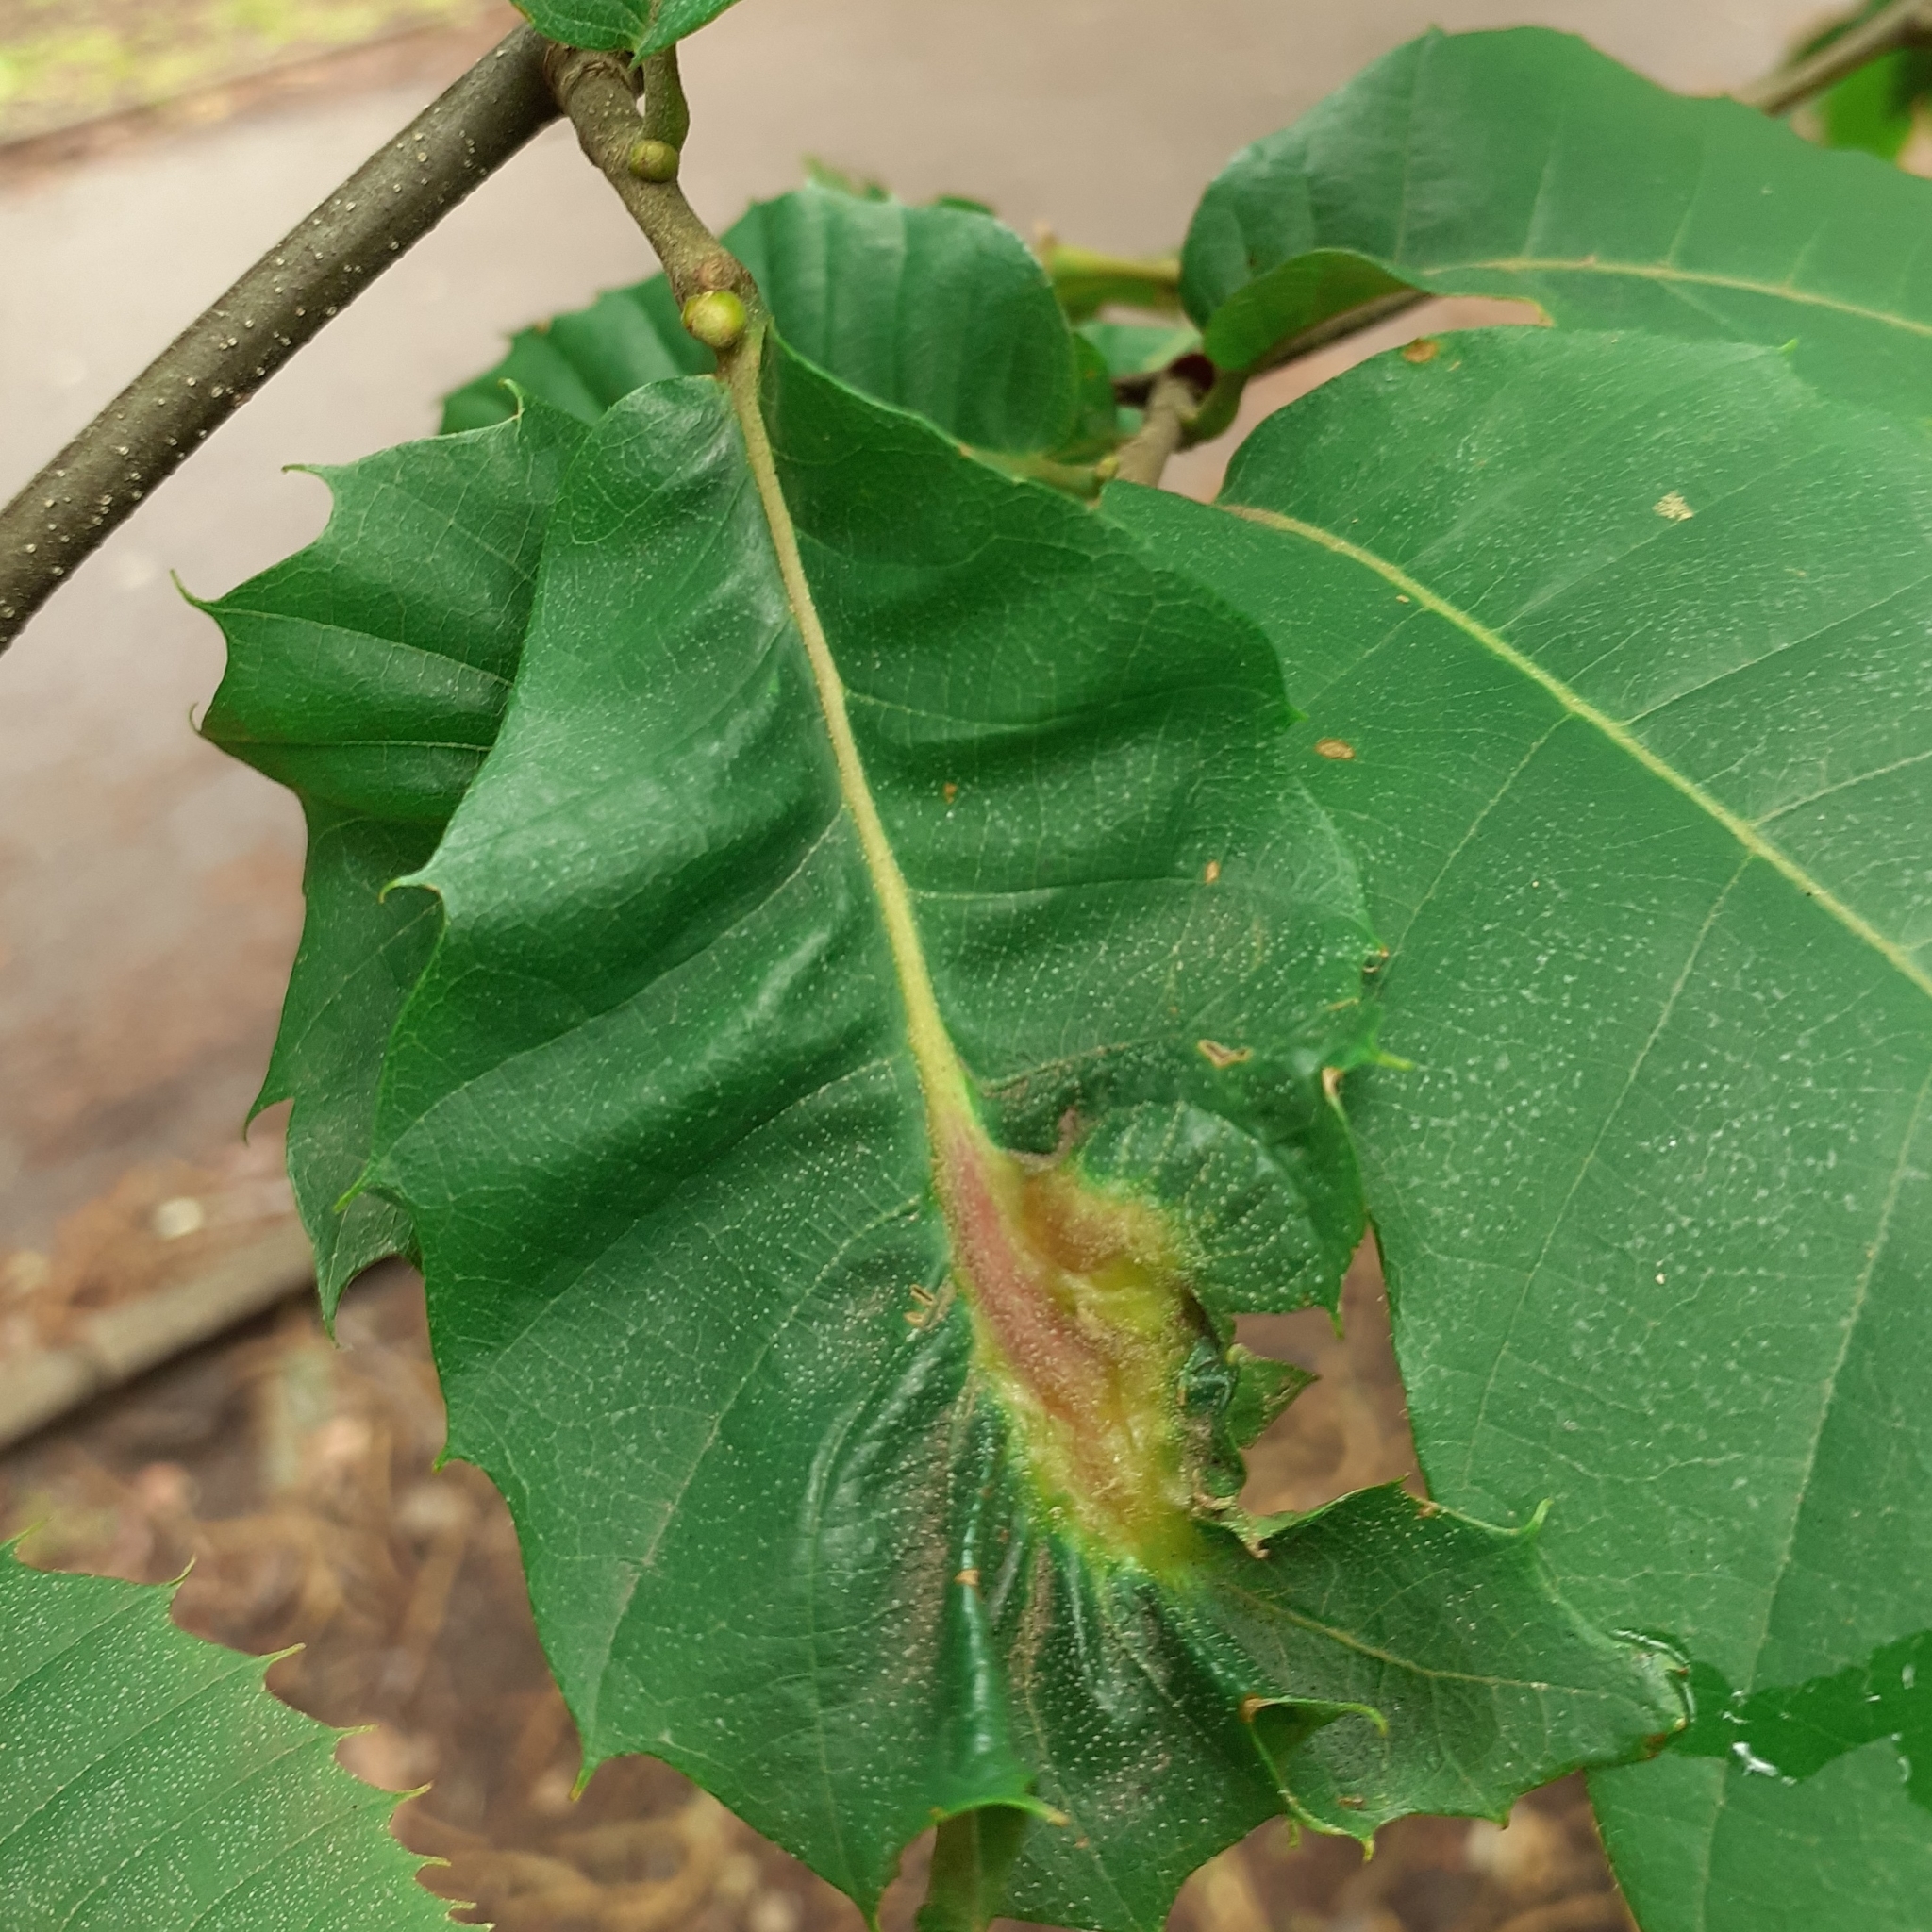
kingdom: Animalia
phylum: Arthropoda
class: Insecta
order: Hymenoptera
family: Cynipidae
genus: Dryocosmus
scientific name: Dryocosmus kuriphilus
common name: Asian chestnut gall wasp
